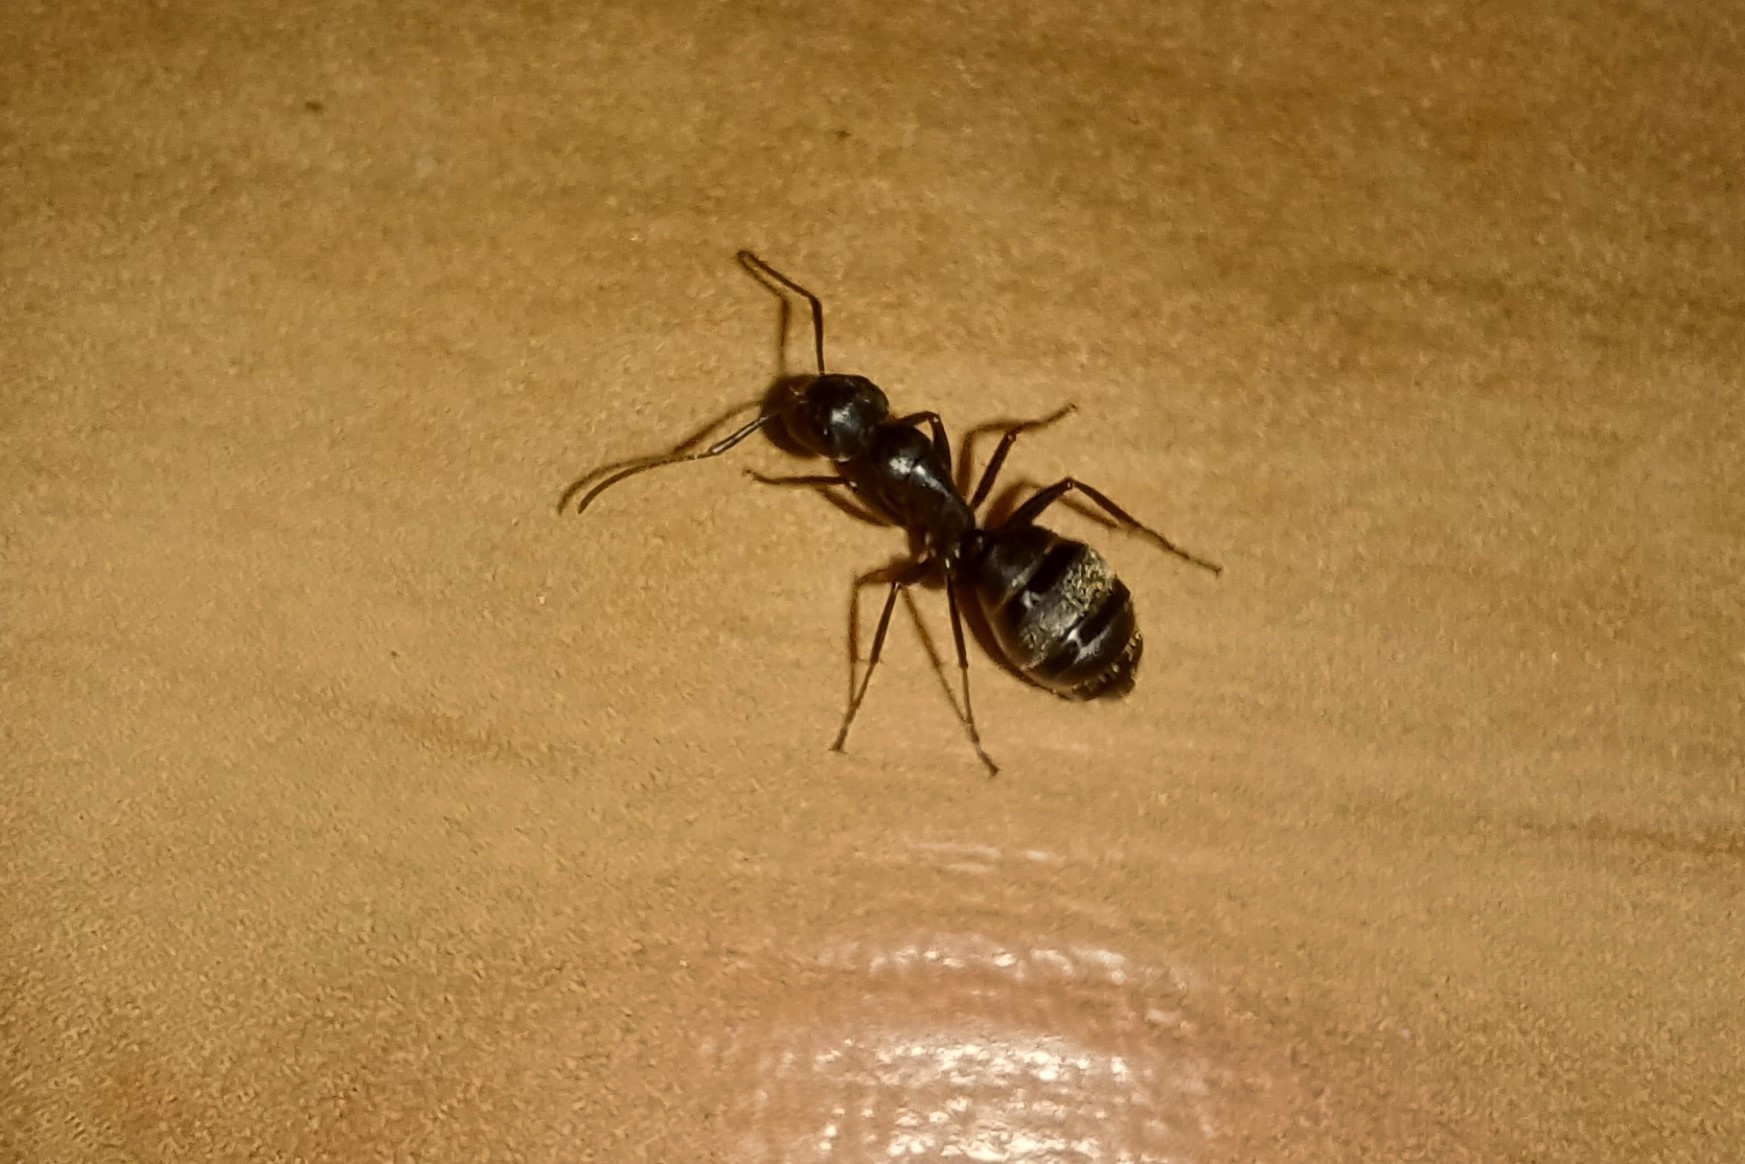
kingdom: Animalia
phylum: Arthropoda
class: Insecta
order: Hymenoptera
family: Formicidae
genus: Camponotus
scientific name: Camponotus pennsylvanicus
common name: Black carpenter ant
